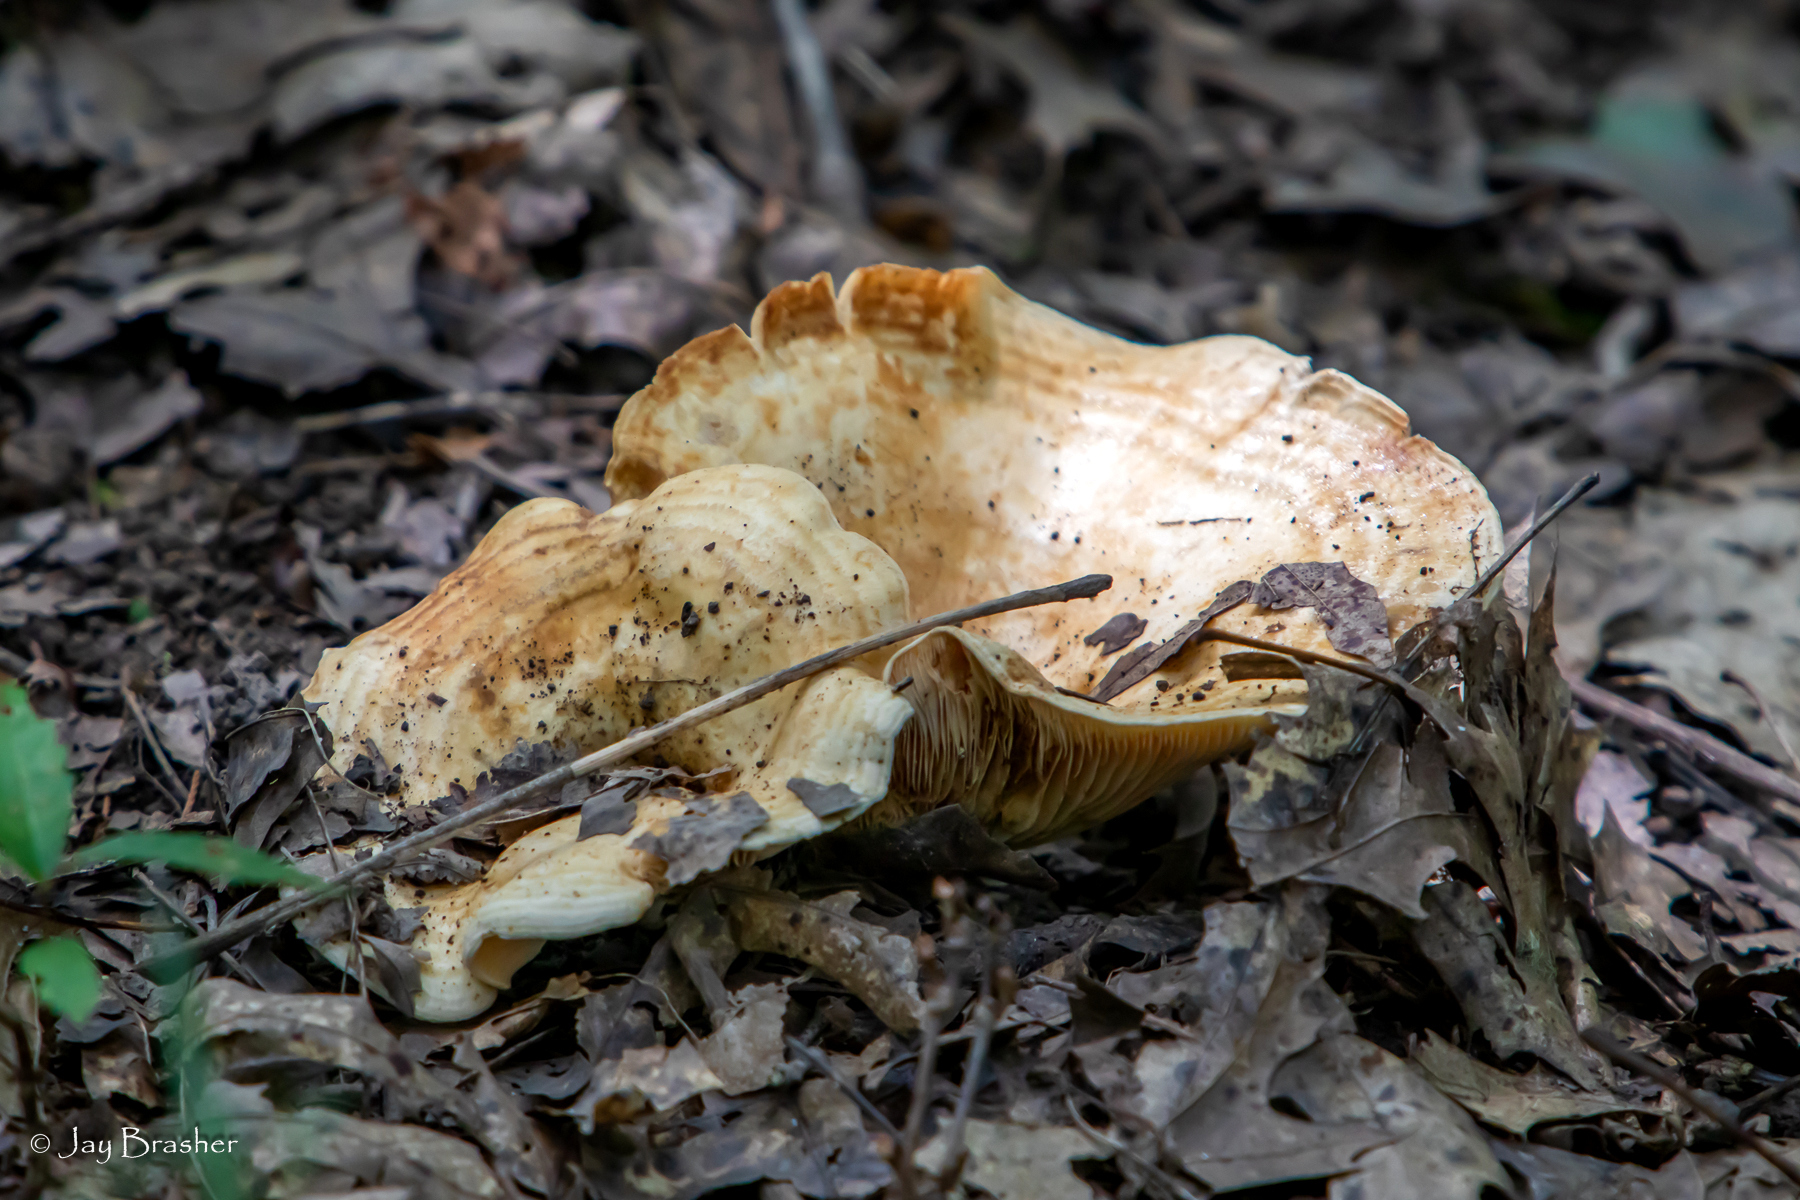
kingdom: Fungi
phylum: Basidiomycota
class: Agaricomycetes
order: Russulales
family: Russulaceae
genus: Lactarius
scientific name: Lactarius psammicola
